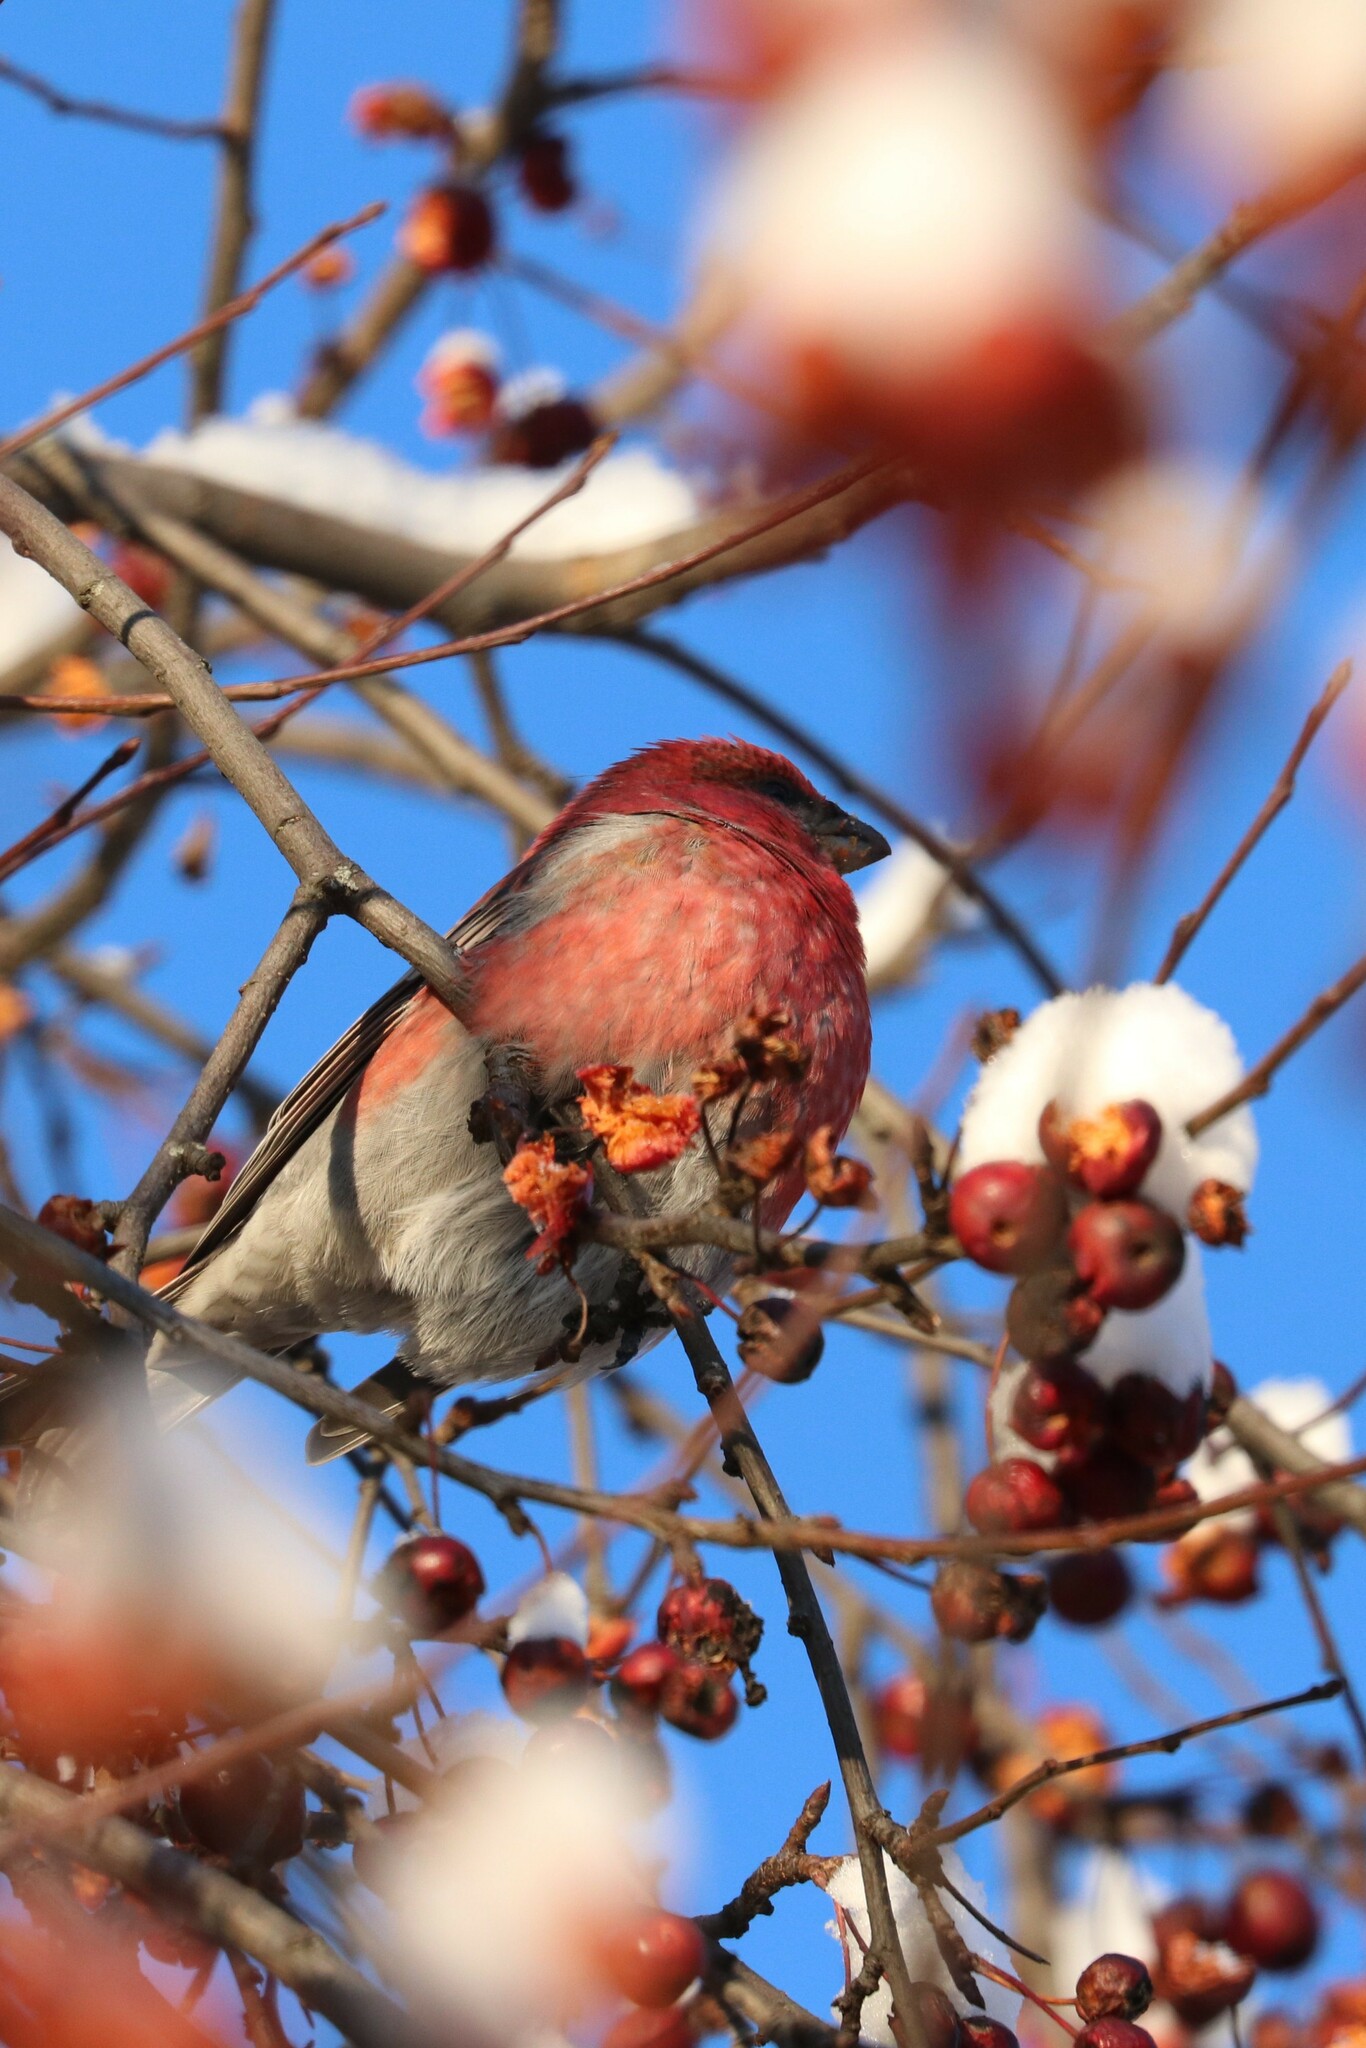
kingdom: Animalia
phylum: Chordata
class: Aves
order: Passeriformes
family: Fringillidae
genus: Pinicola
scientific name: Pinicola enucleator
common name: Pine grosbeak
